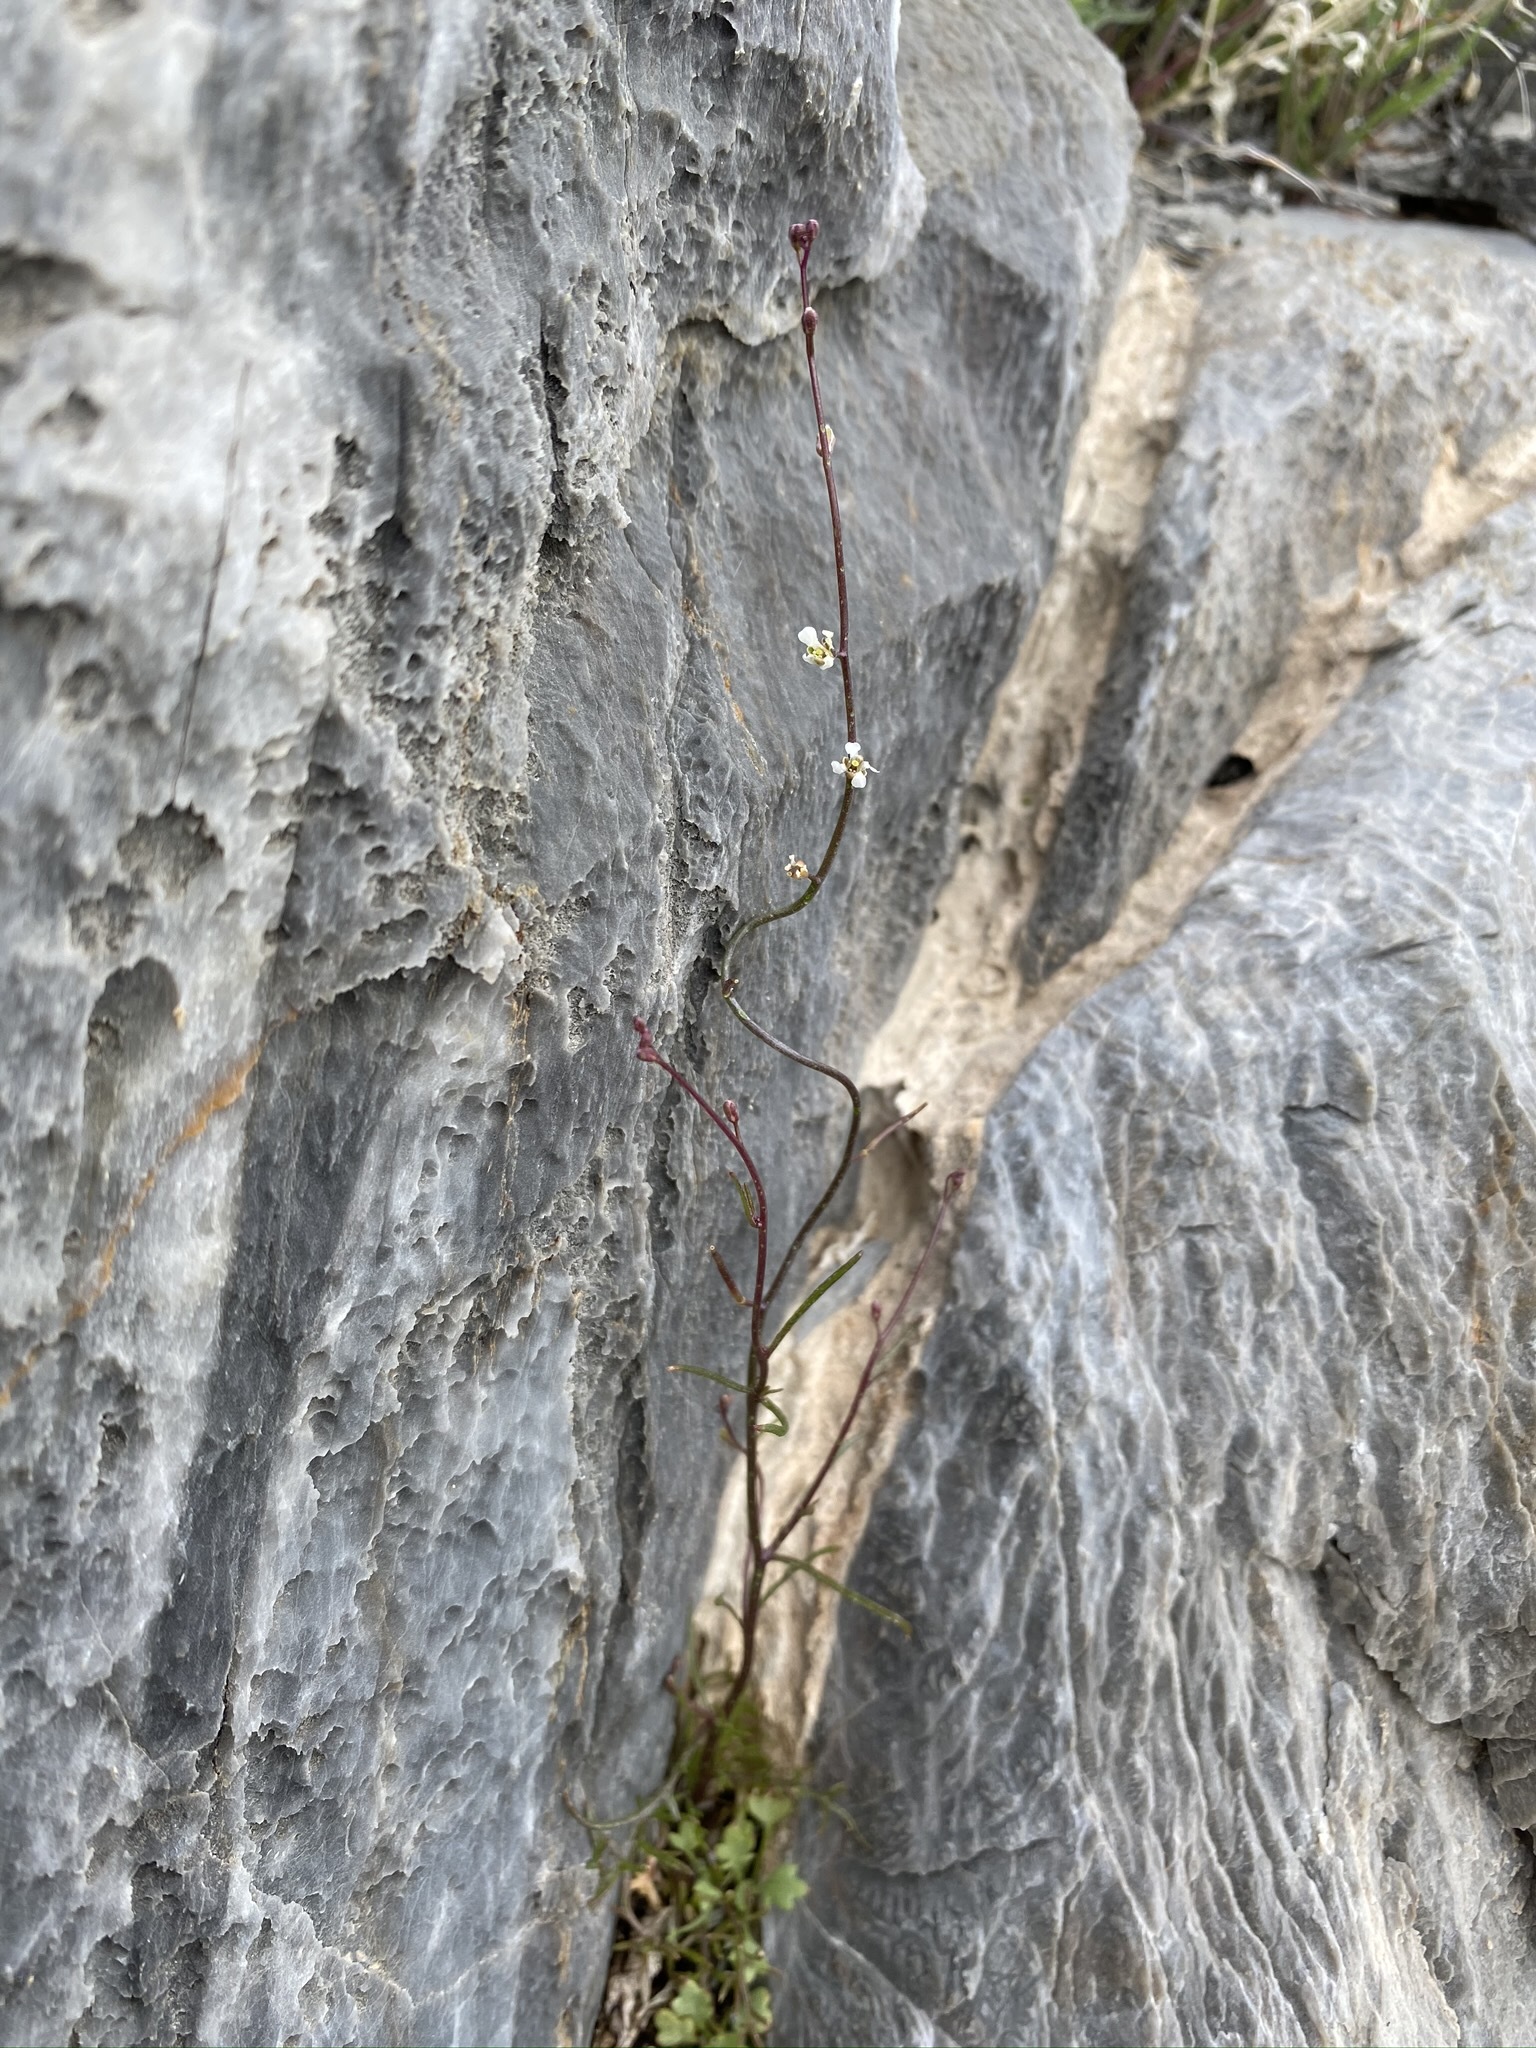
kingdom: Plantae
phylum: Tracheophyta
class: Magnoliopsida
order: Brassicales
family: Brassicaceae
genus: Sibara
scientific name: Sibara deserti
